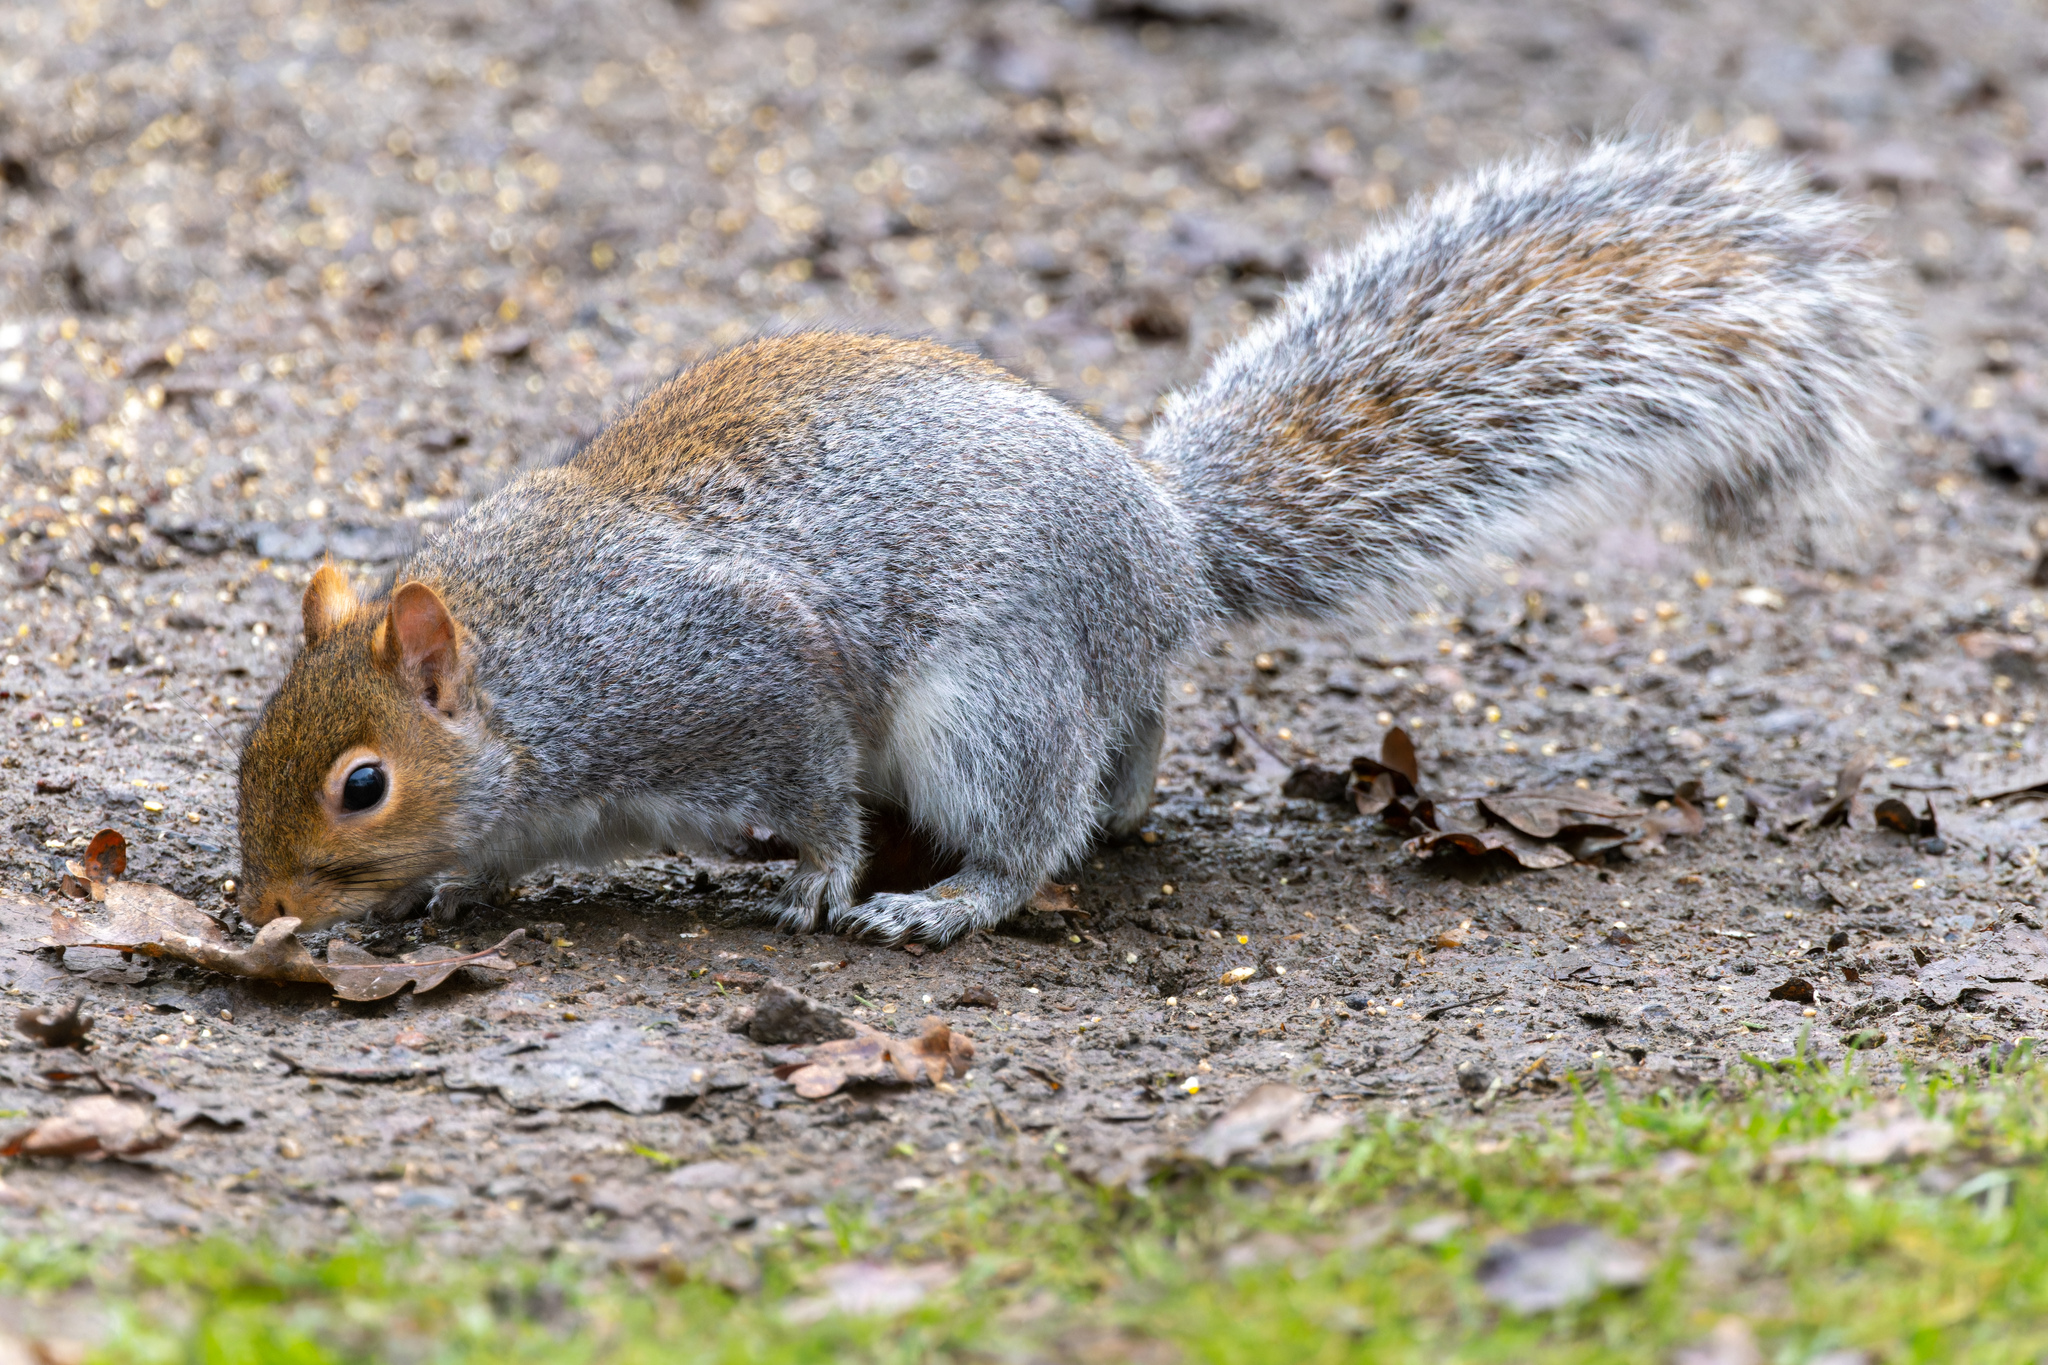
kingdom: Animalia
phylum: Chordata
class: Mammalia
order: Rodentia
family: Sciuridae
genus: Sciurus
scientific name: Sciurus carolinensis
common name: Eastern gray squirrel
